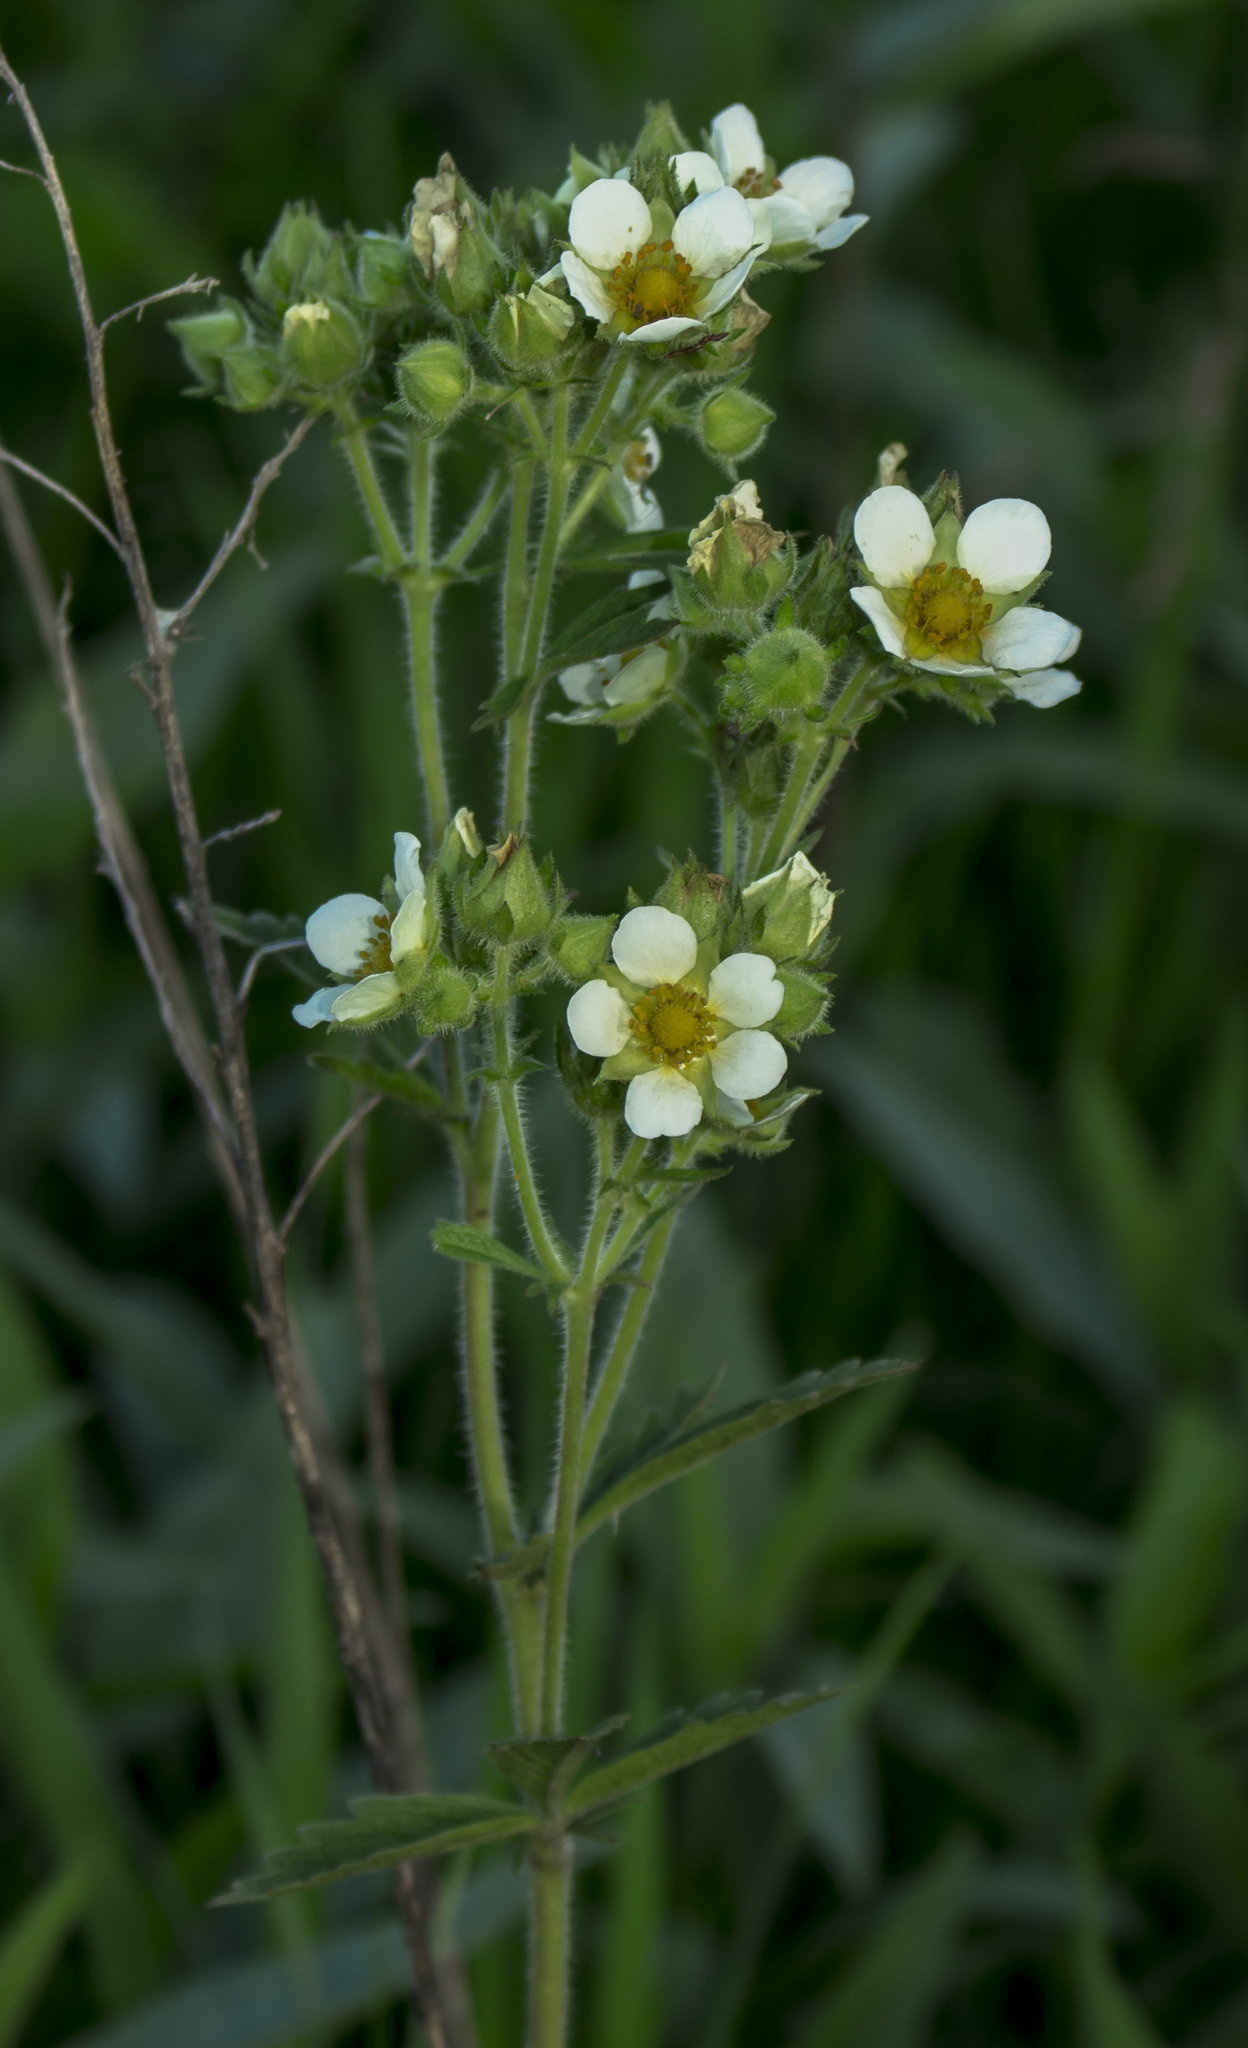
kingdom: Plantae
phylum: Tracheophyta
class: Magnoliopsida
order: Rosales
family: Rosaceae
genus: Drymocallis
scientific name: Drymocallis arguta
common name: Tall cinquefoil
